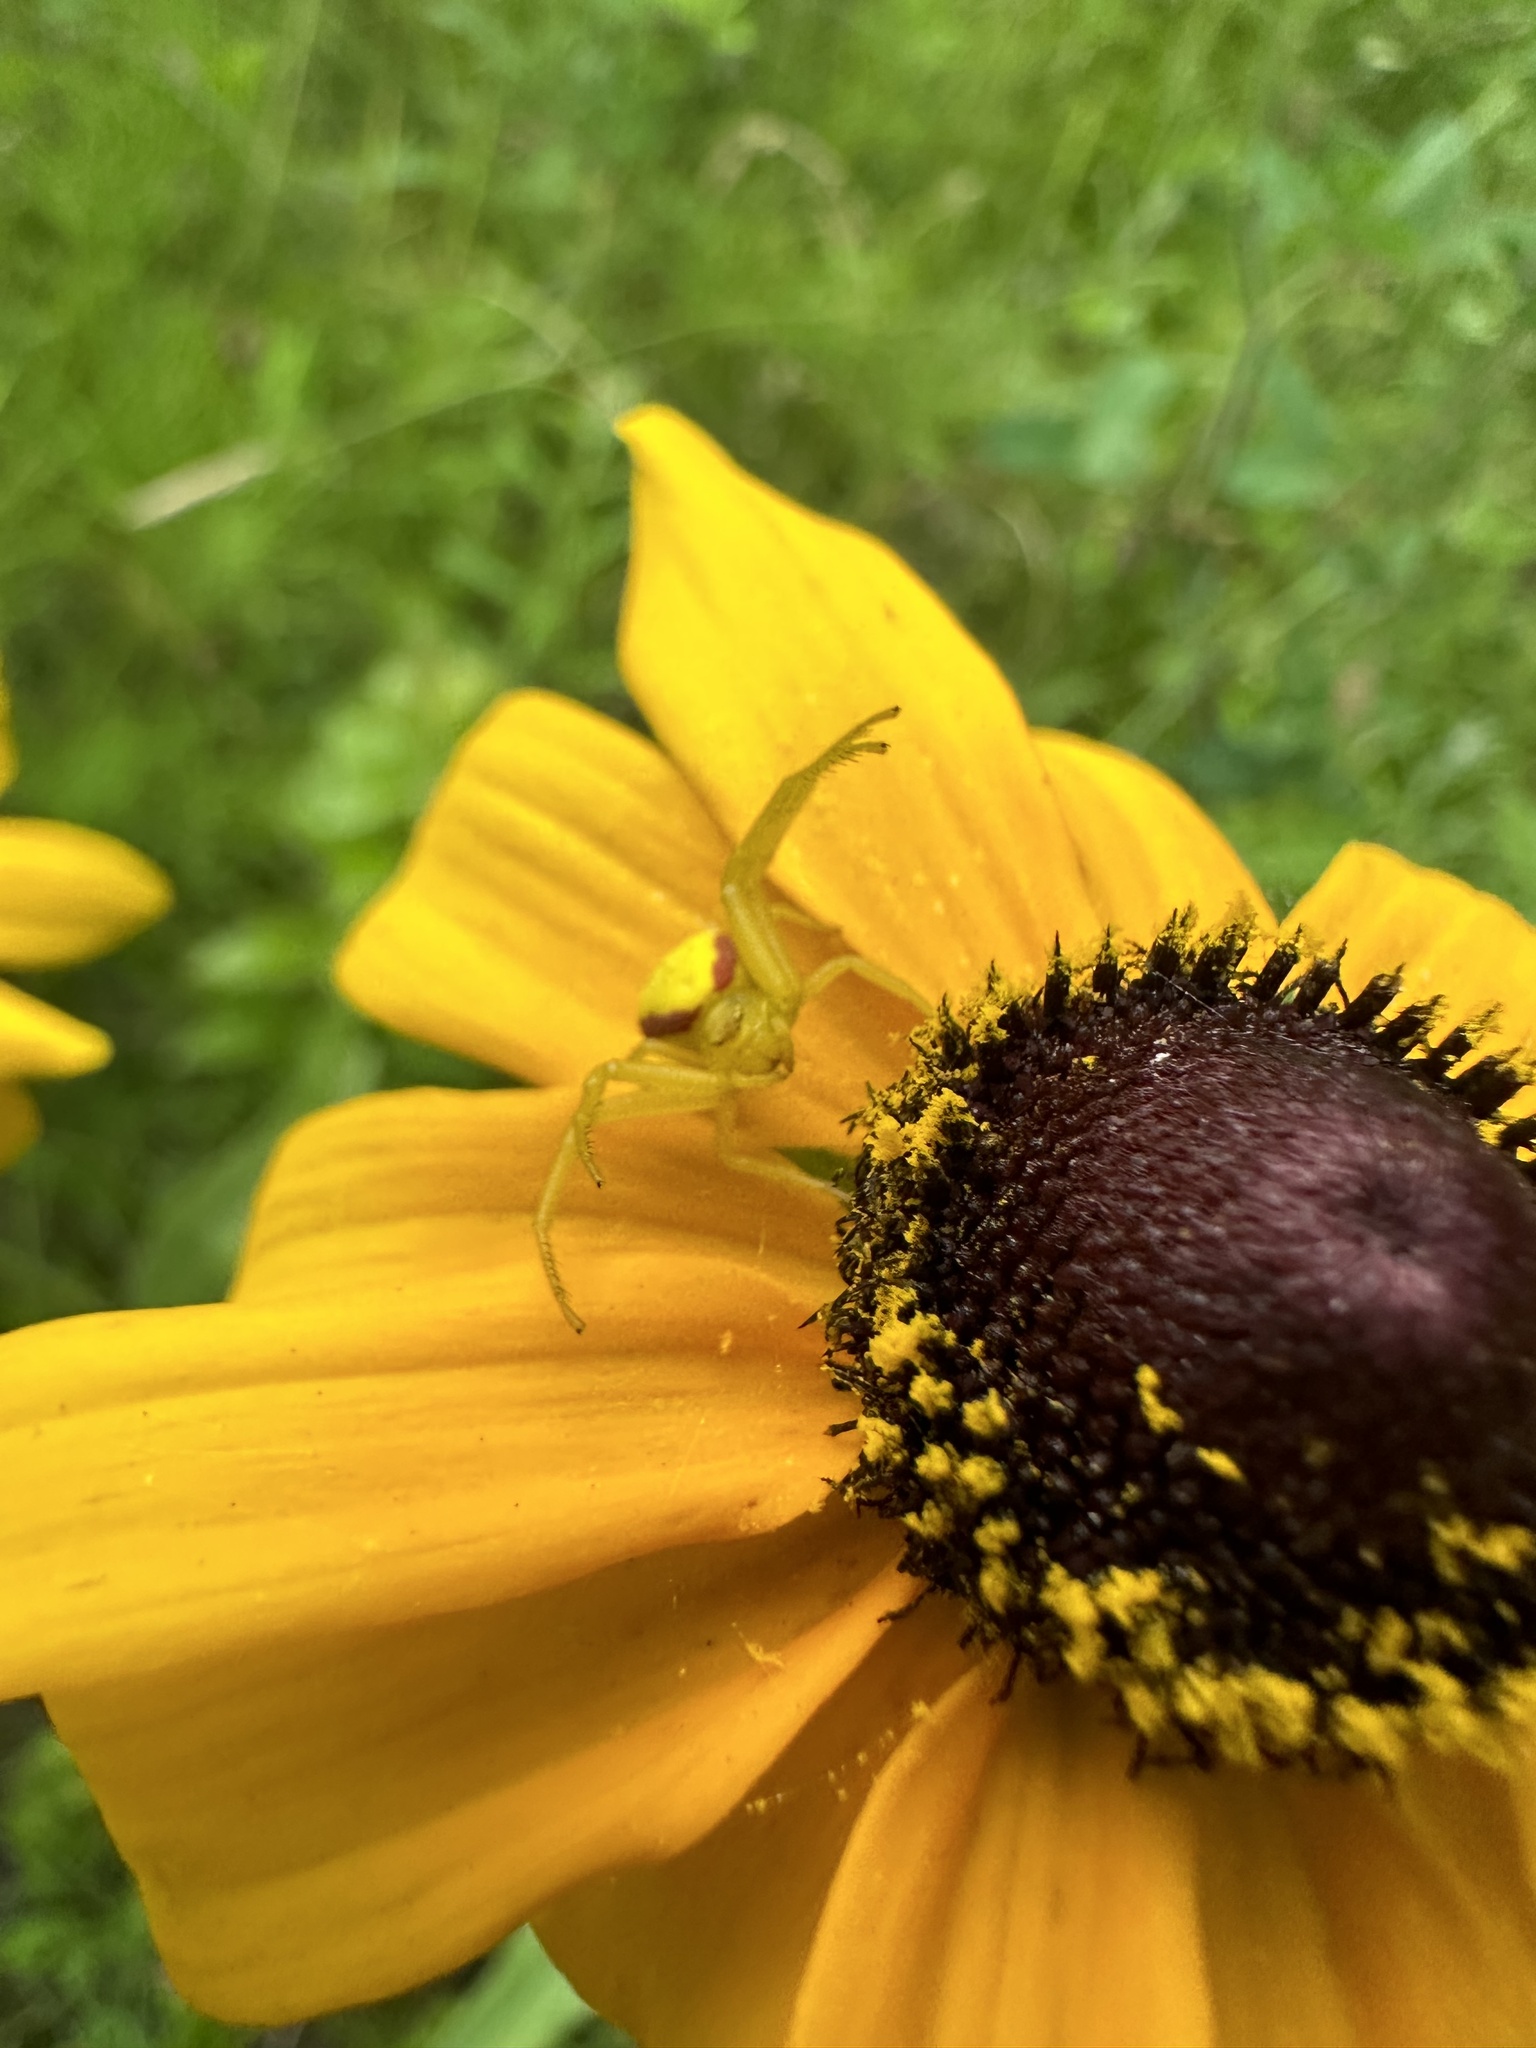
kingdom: Animalia
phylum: Arthropoda
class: Arachnida
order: Araneae
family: Thomisidae
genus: Misumena
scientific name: Misumena vatia
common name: Goldenrod crab spider
